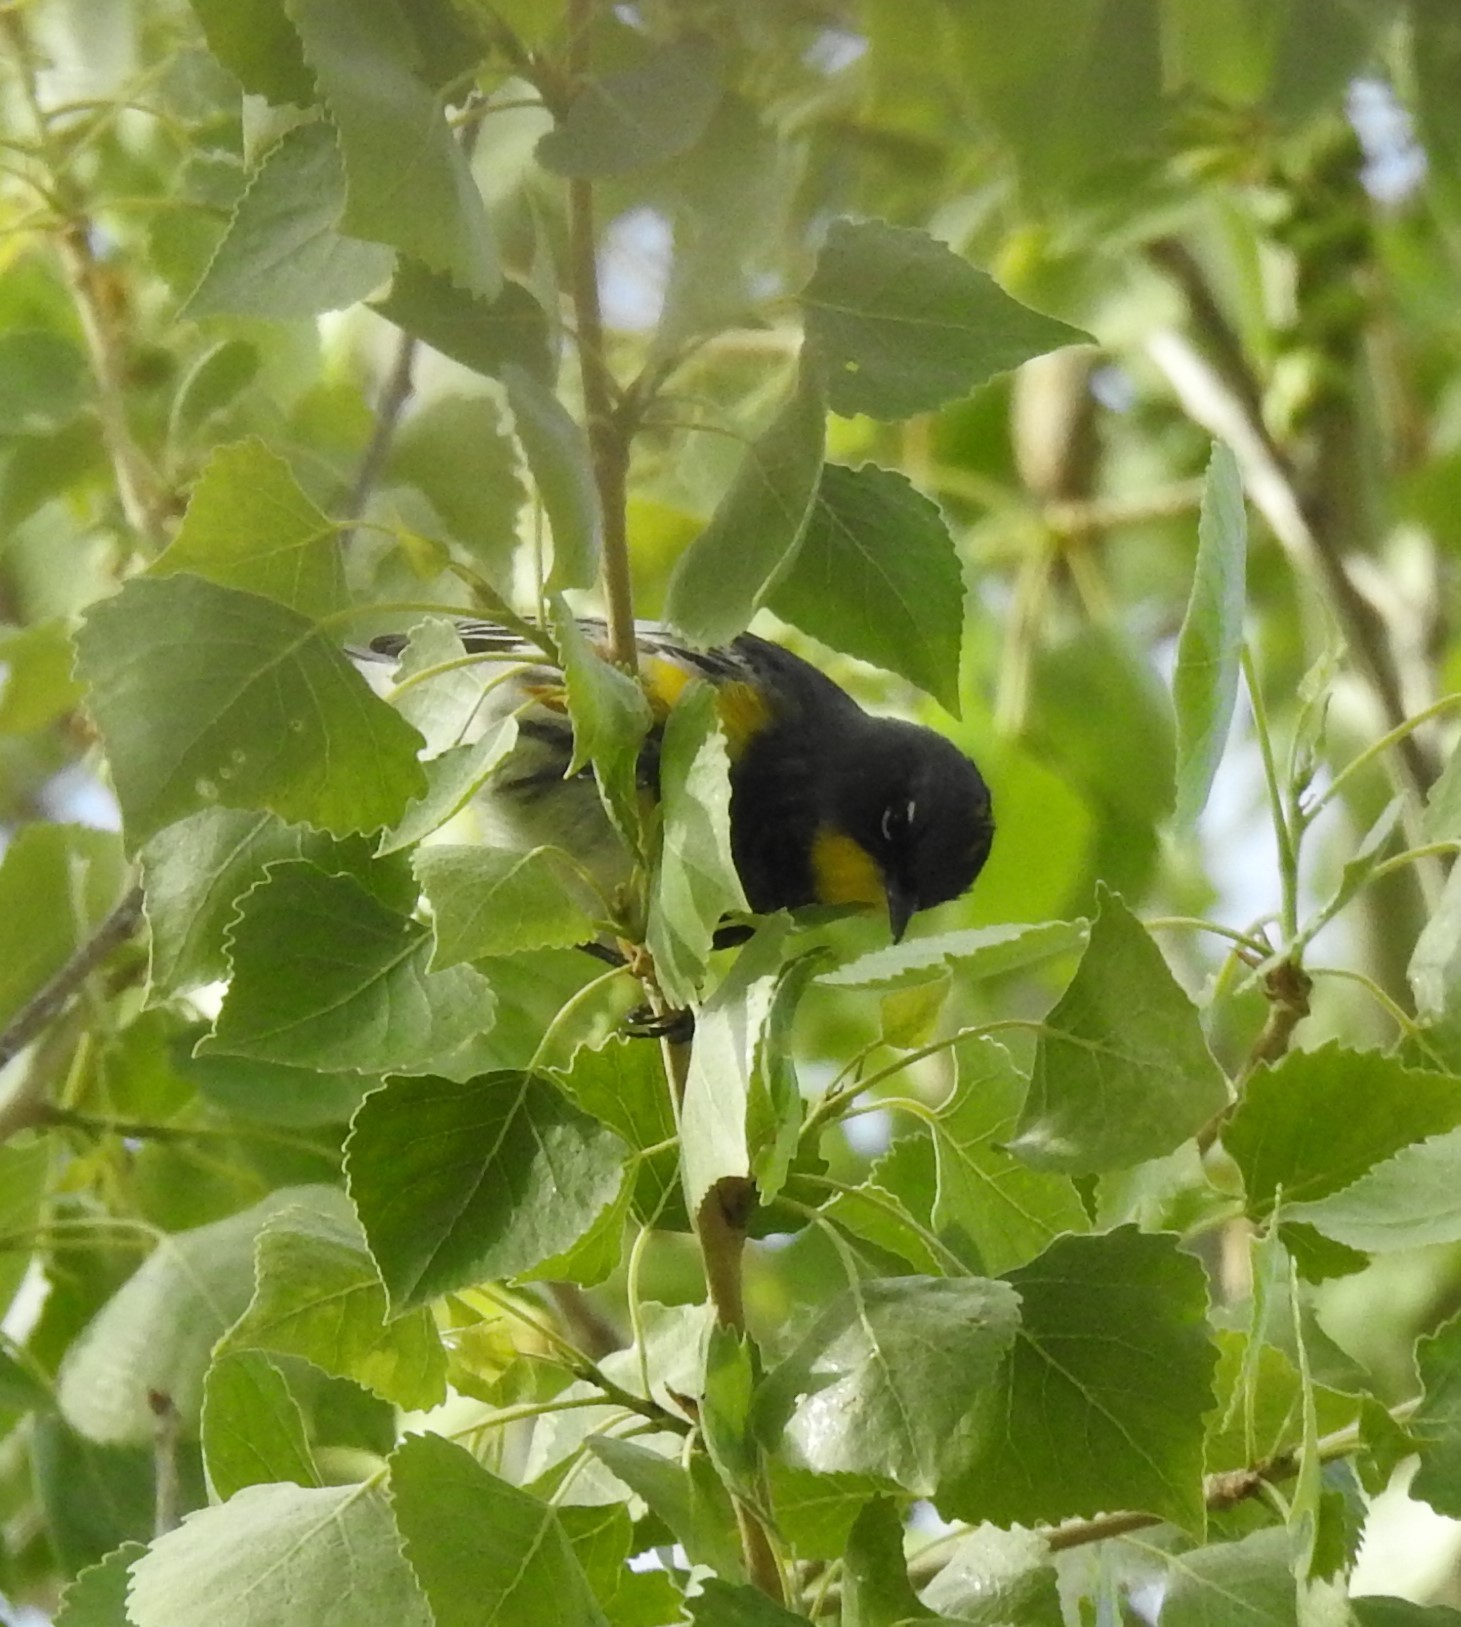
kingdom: Animalia
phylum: Chordata
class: Aves
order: Passeriformes
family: Parulidae
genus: Setophaga
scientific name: Setophaga auduboni
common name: Audubon's warbler
